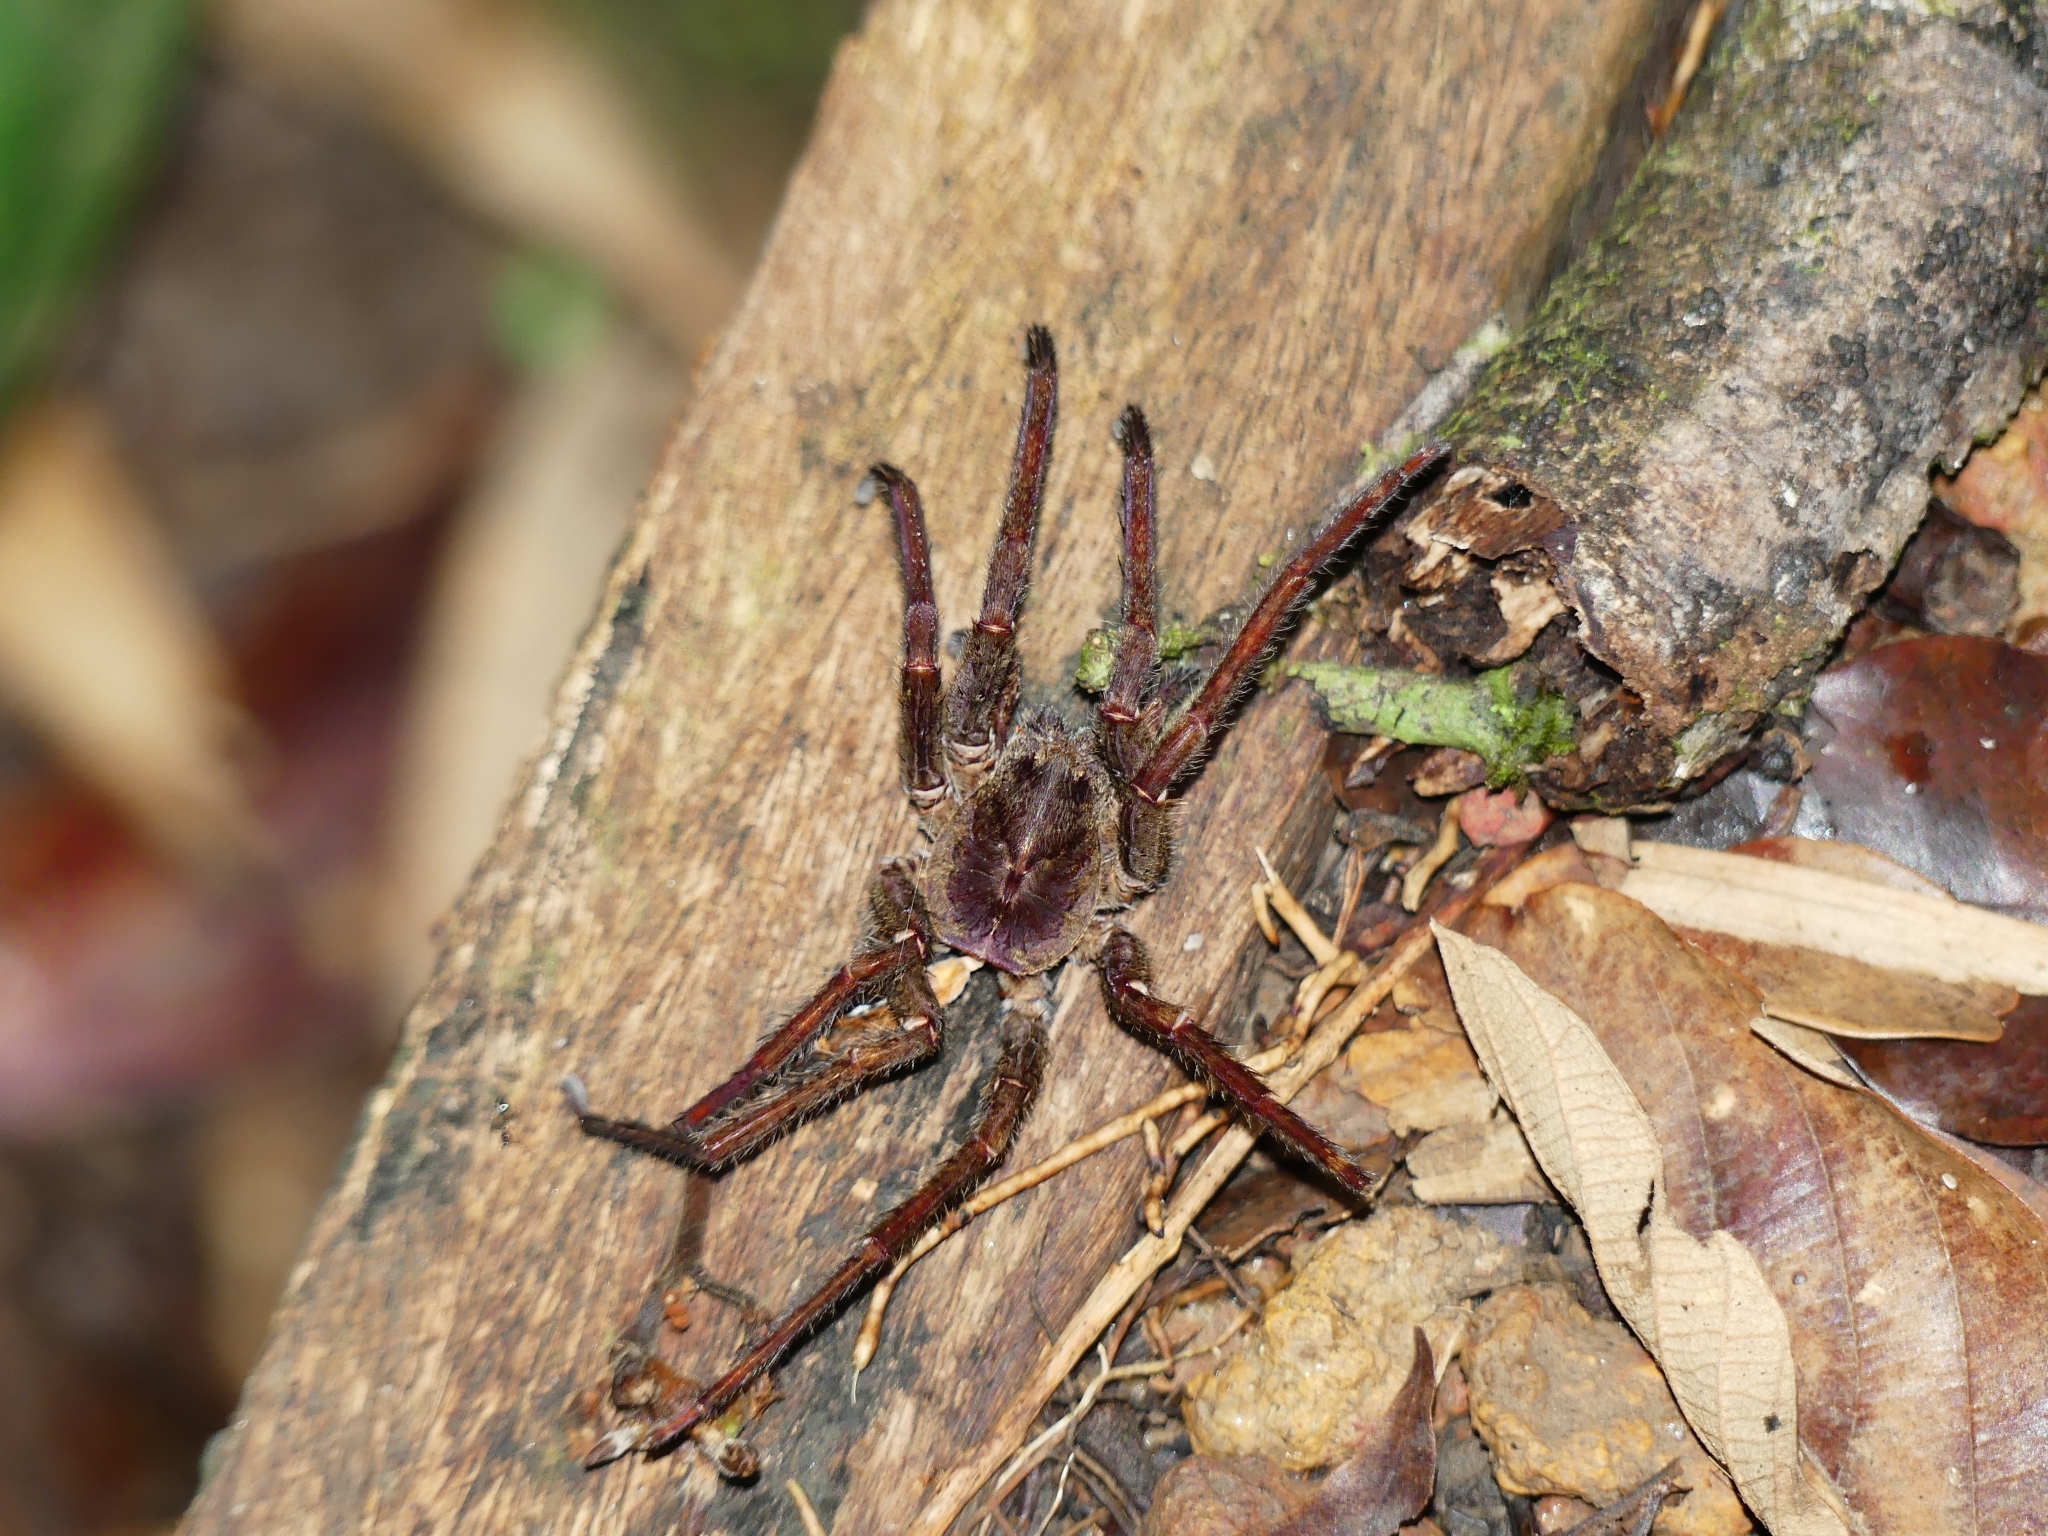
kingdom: Animalia
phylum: Arthropoda
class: Arachnida
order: Araneae
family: Ctenidae
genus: Ancylometes
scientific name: Ancylometes
